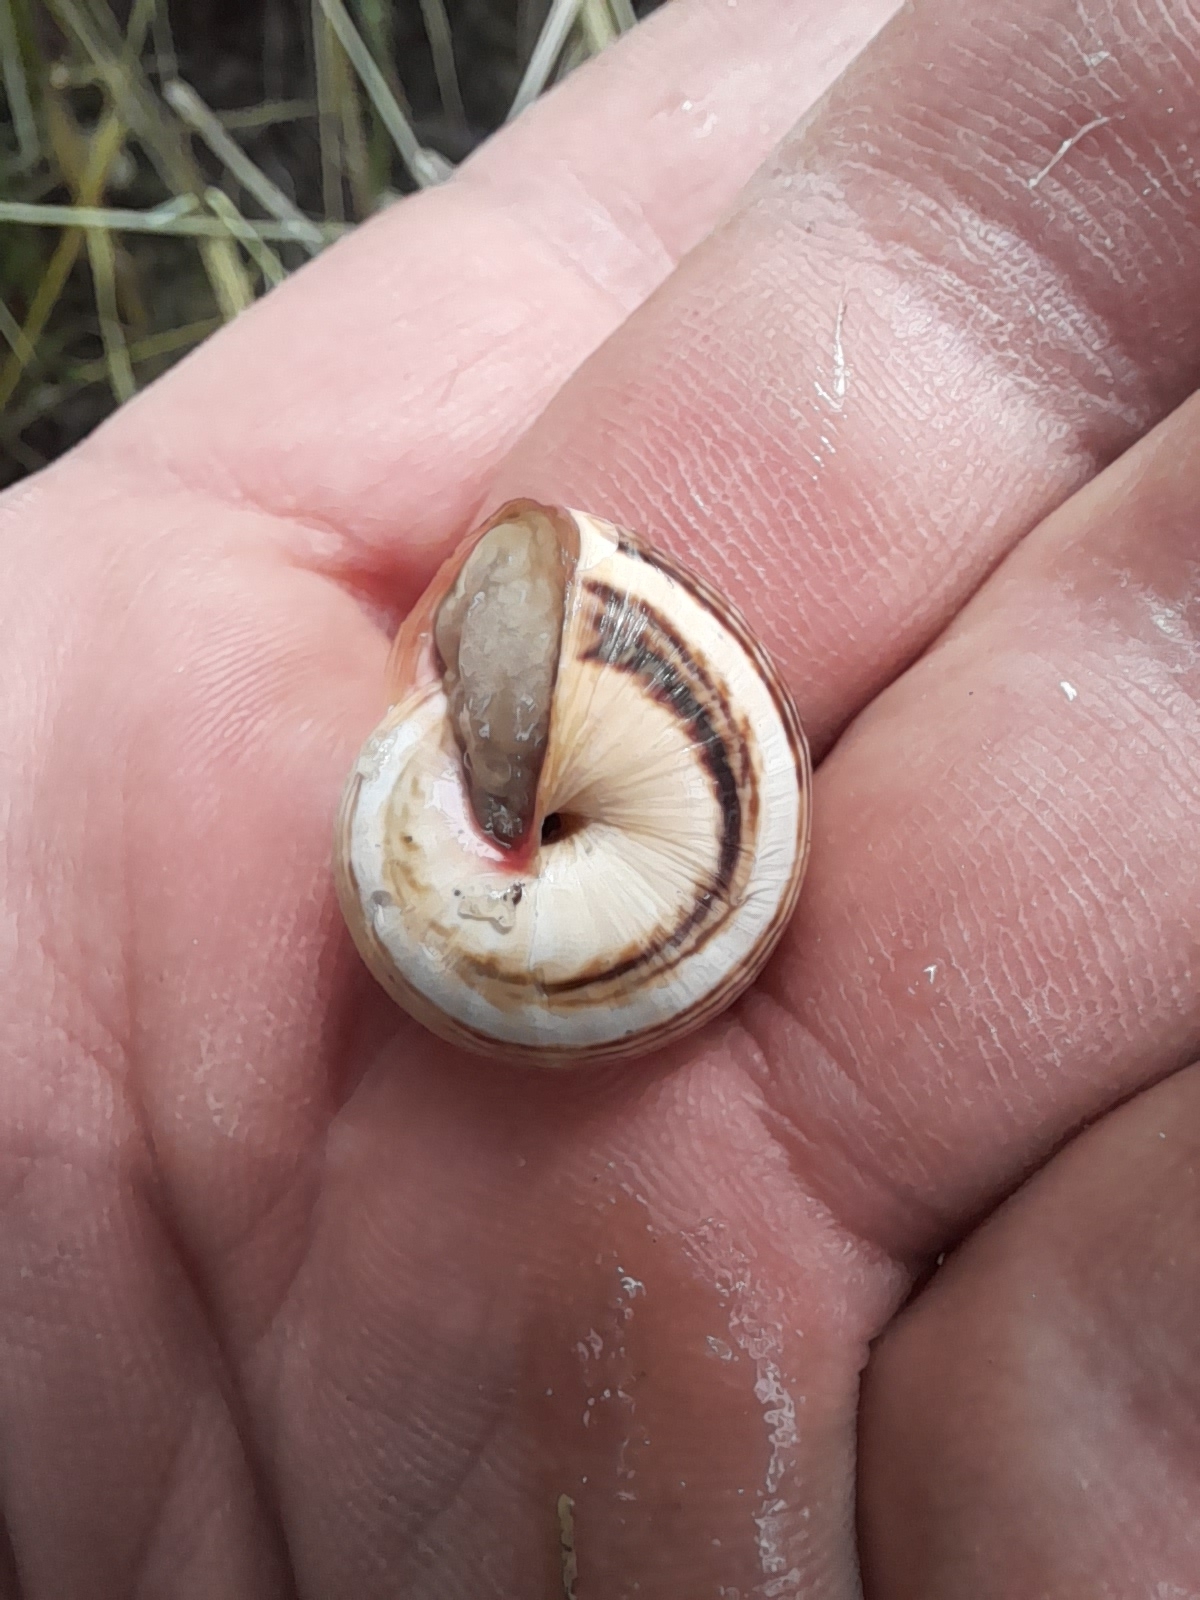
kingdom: Animalia
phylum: Mollusca
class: Gastropoda
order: Stylommatophora
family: Helicidae
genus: Theba
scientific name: Theba pisana
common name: White snail
